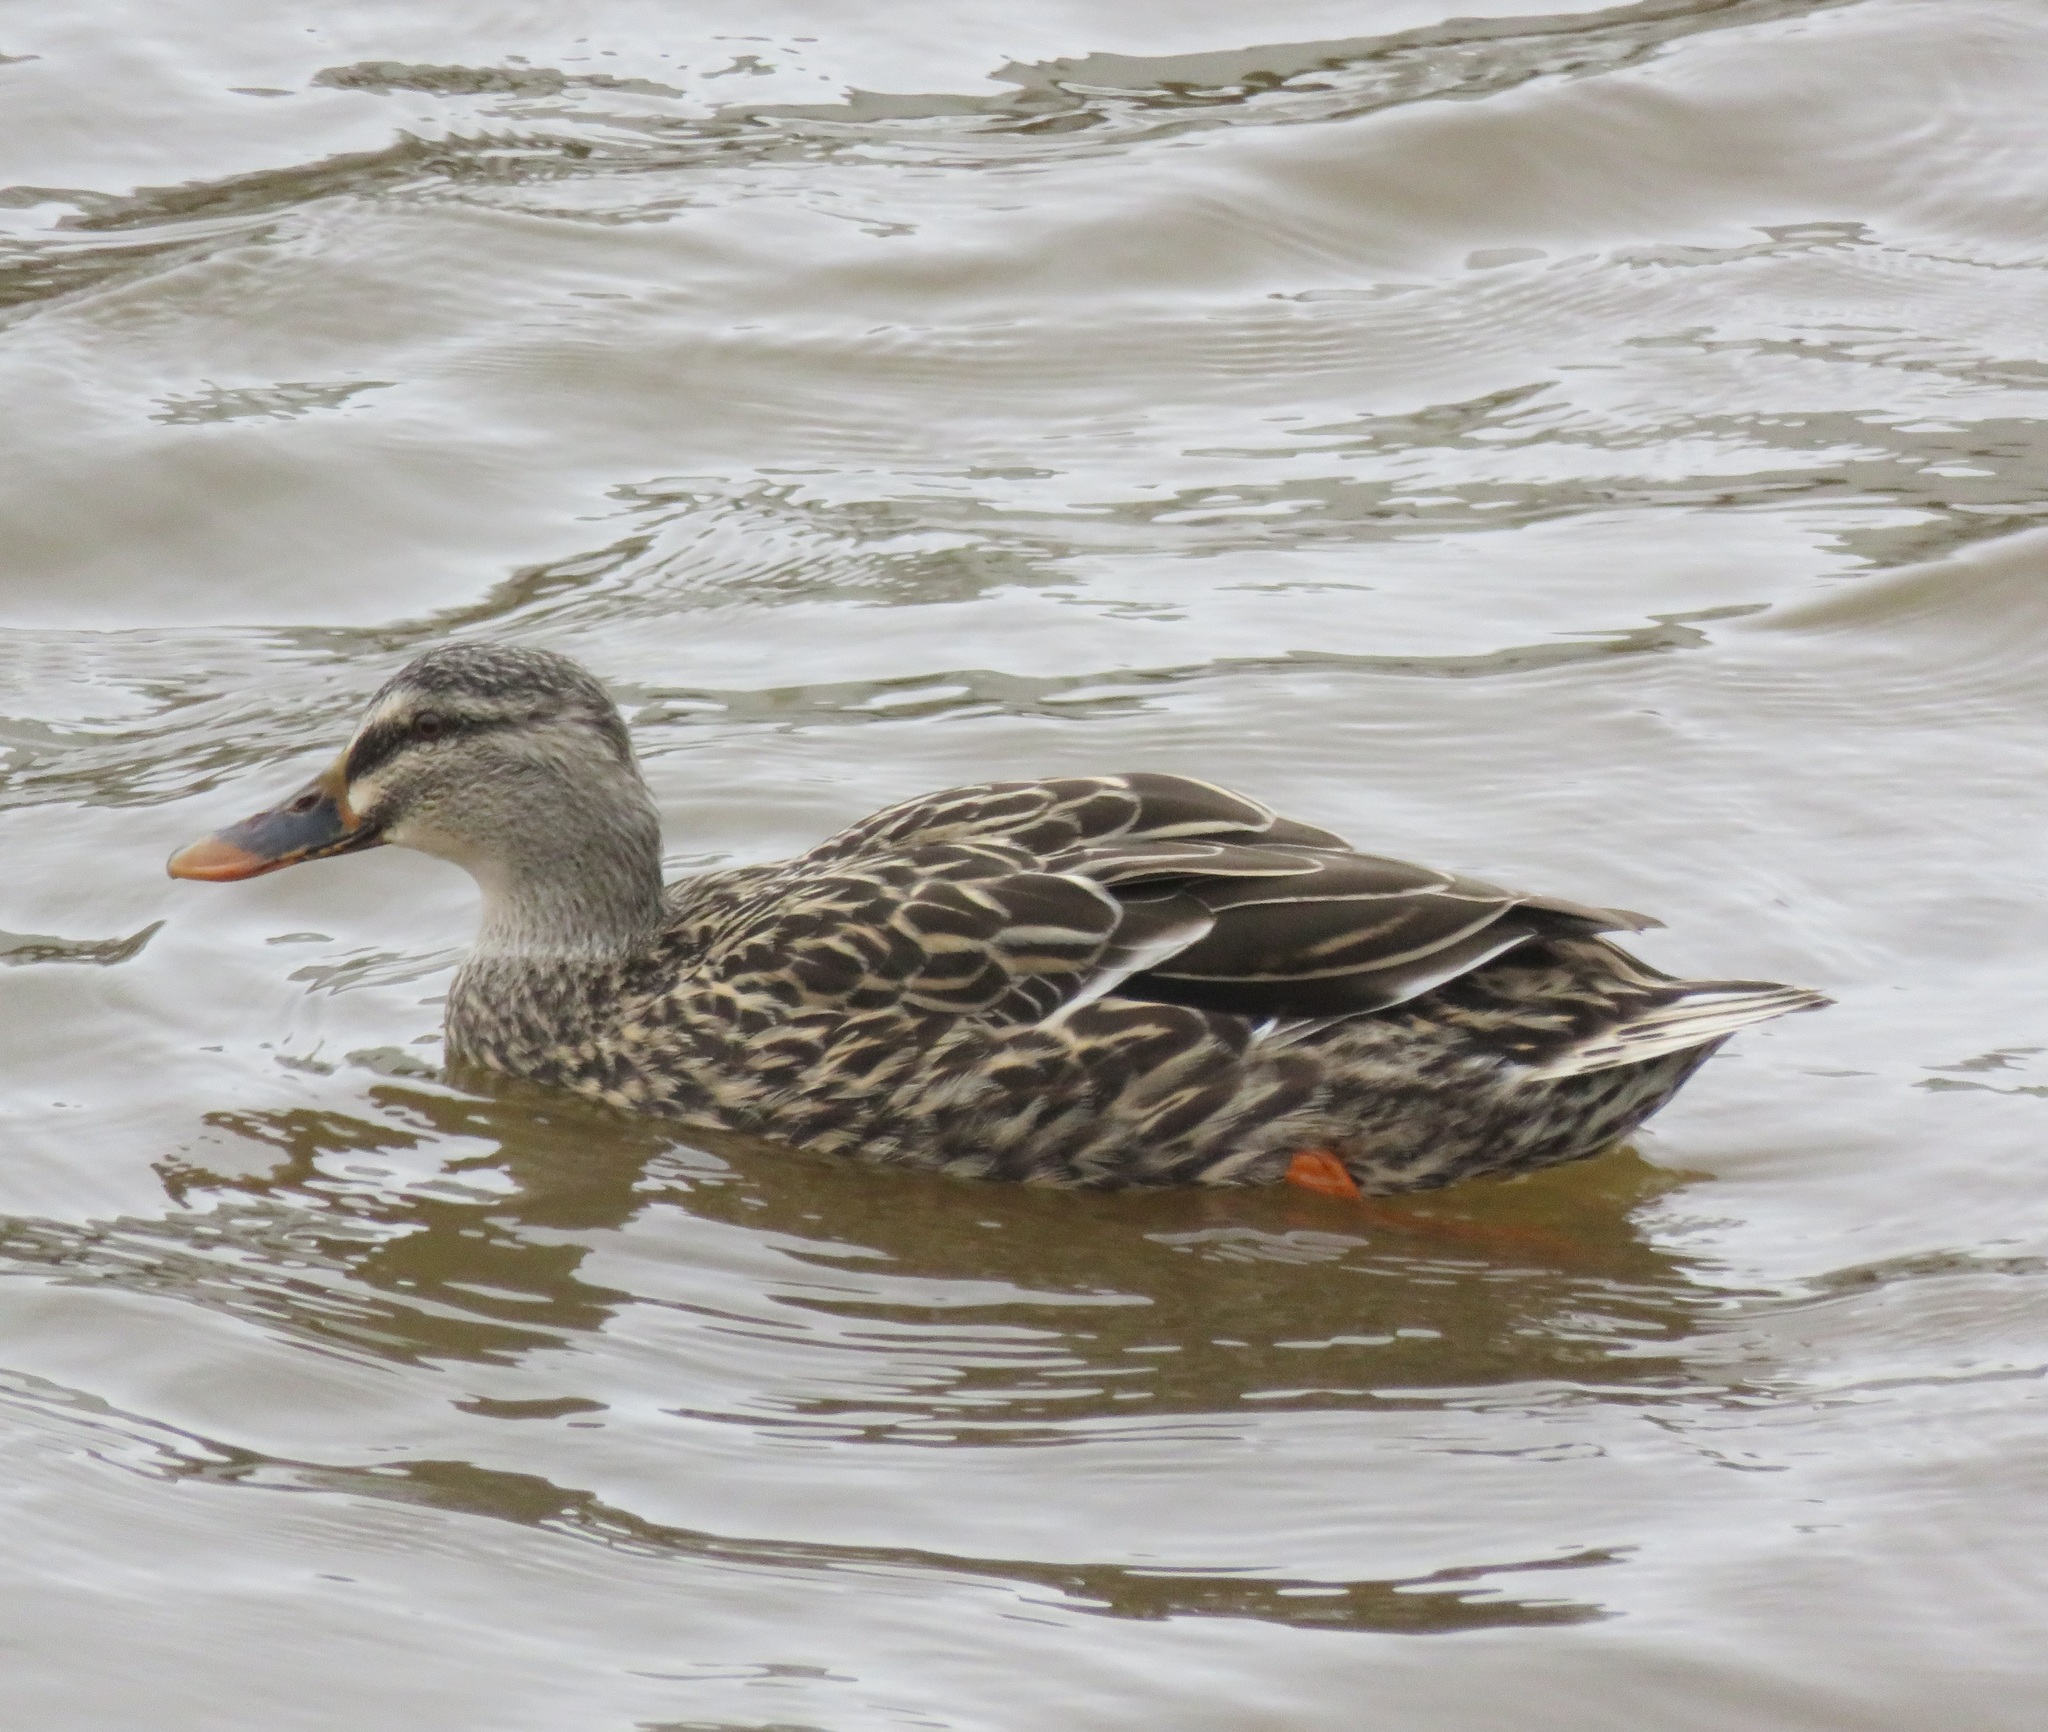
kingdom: Animalia
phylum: Chordata
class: Aves
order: Anseriformes
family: Anatidae
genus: Anas
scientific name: Anas
